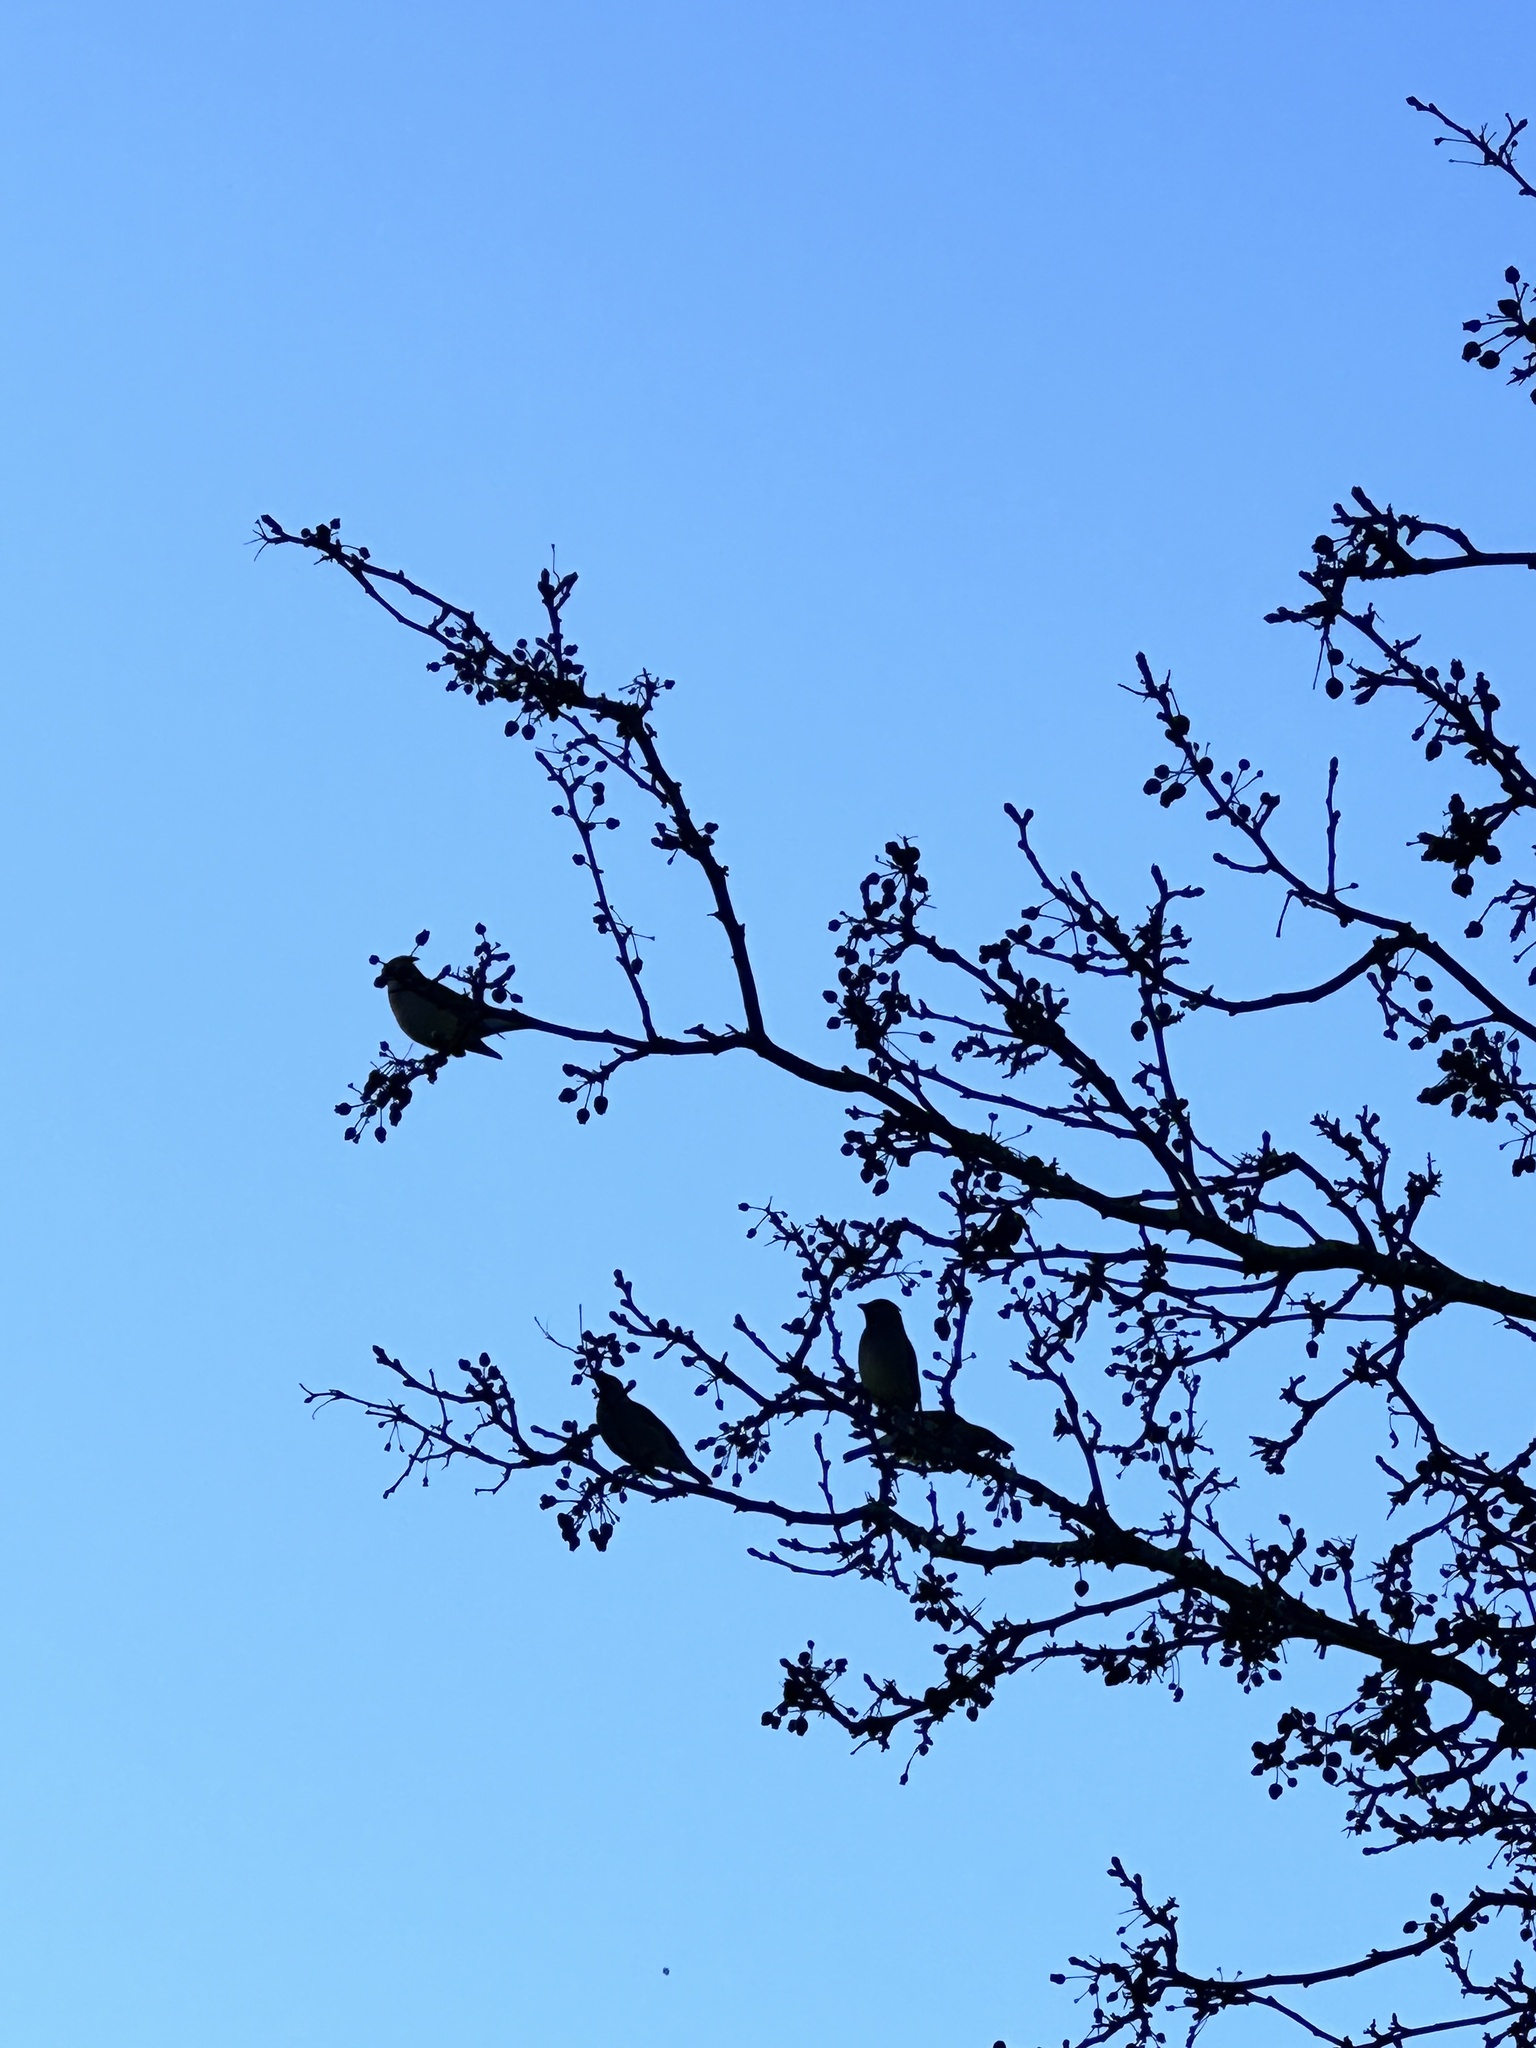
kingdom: Animalia
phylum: Chordata
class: Aves
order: Passeriformes
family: Bombycillidae
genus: Bombycilla
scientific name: Bombycilla cedrorum
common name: Cedar waxwing
